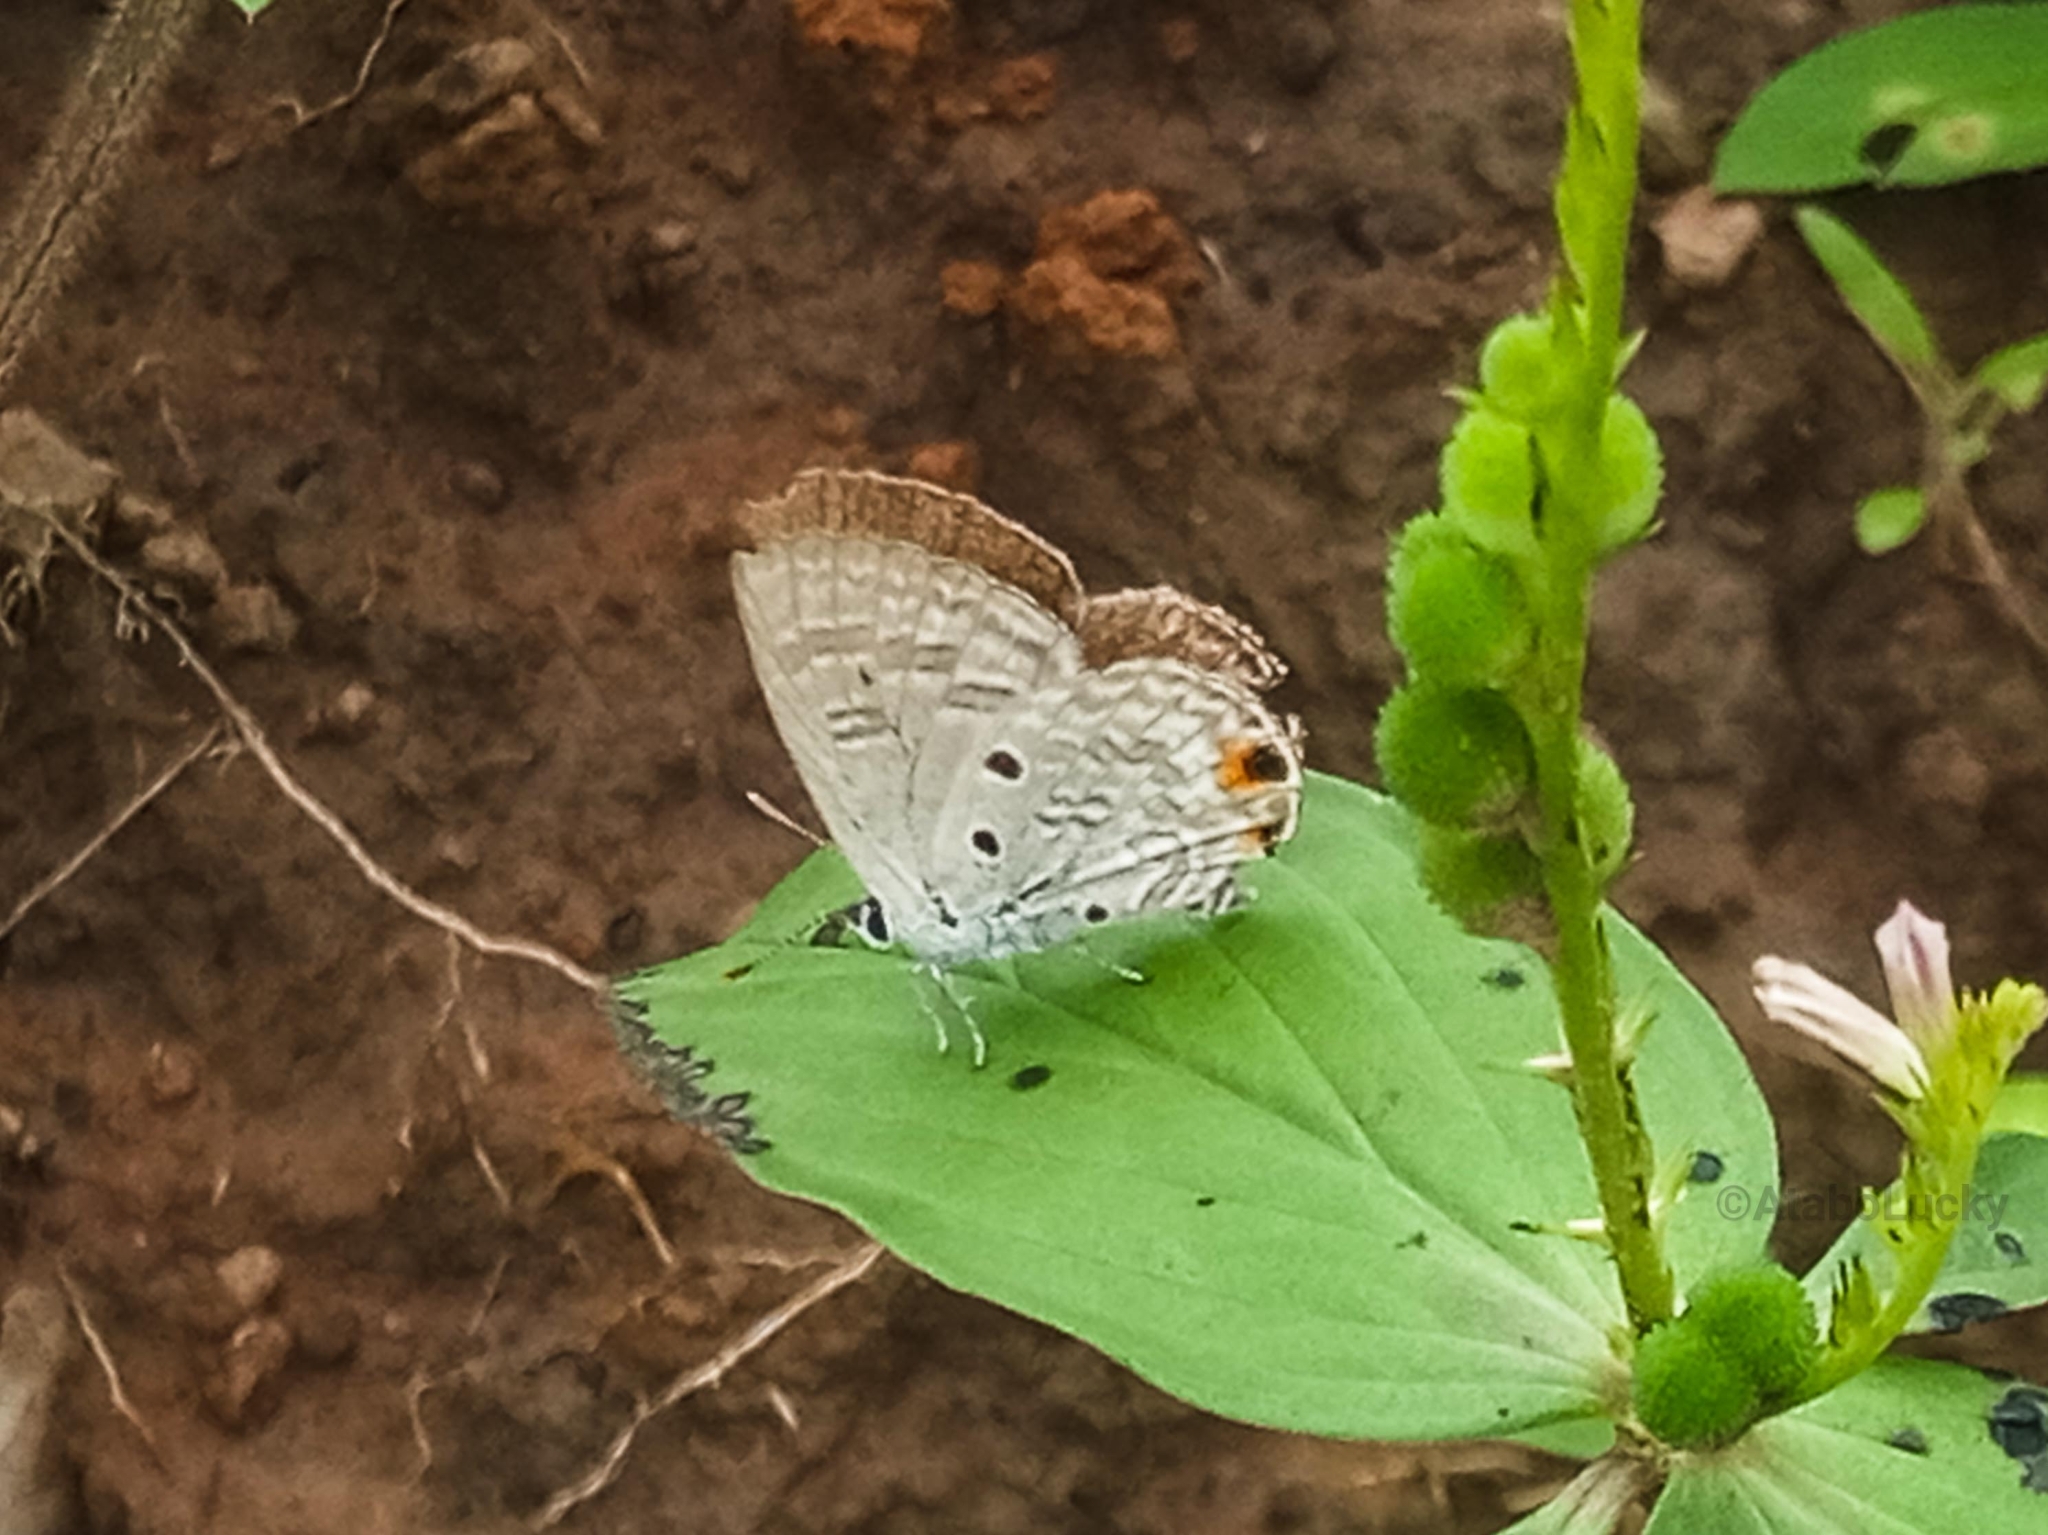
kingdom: Animalia
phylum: Arthropoda
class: Insecta
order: Lepidoptera
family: Lycaenidae
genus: Anthene
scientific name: Anthene lunulata
